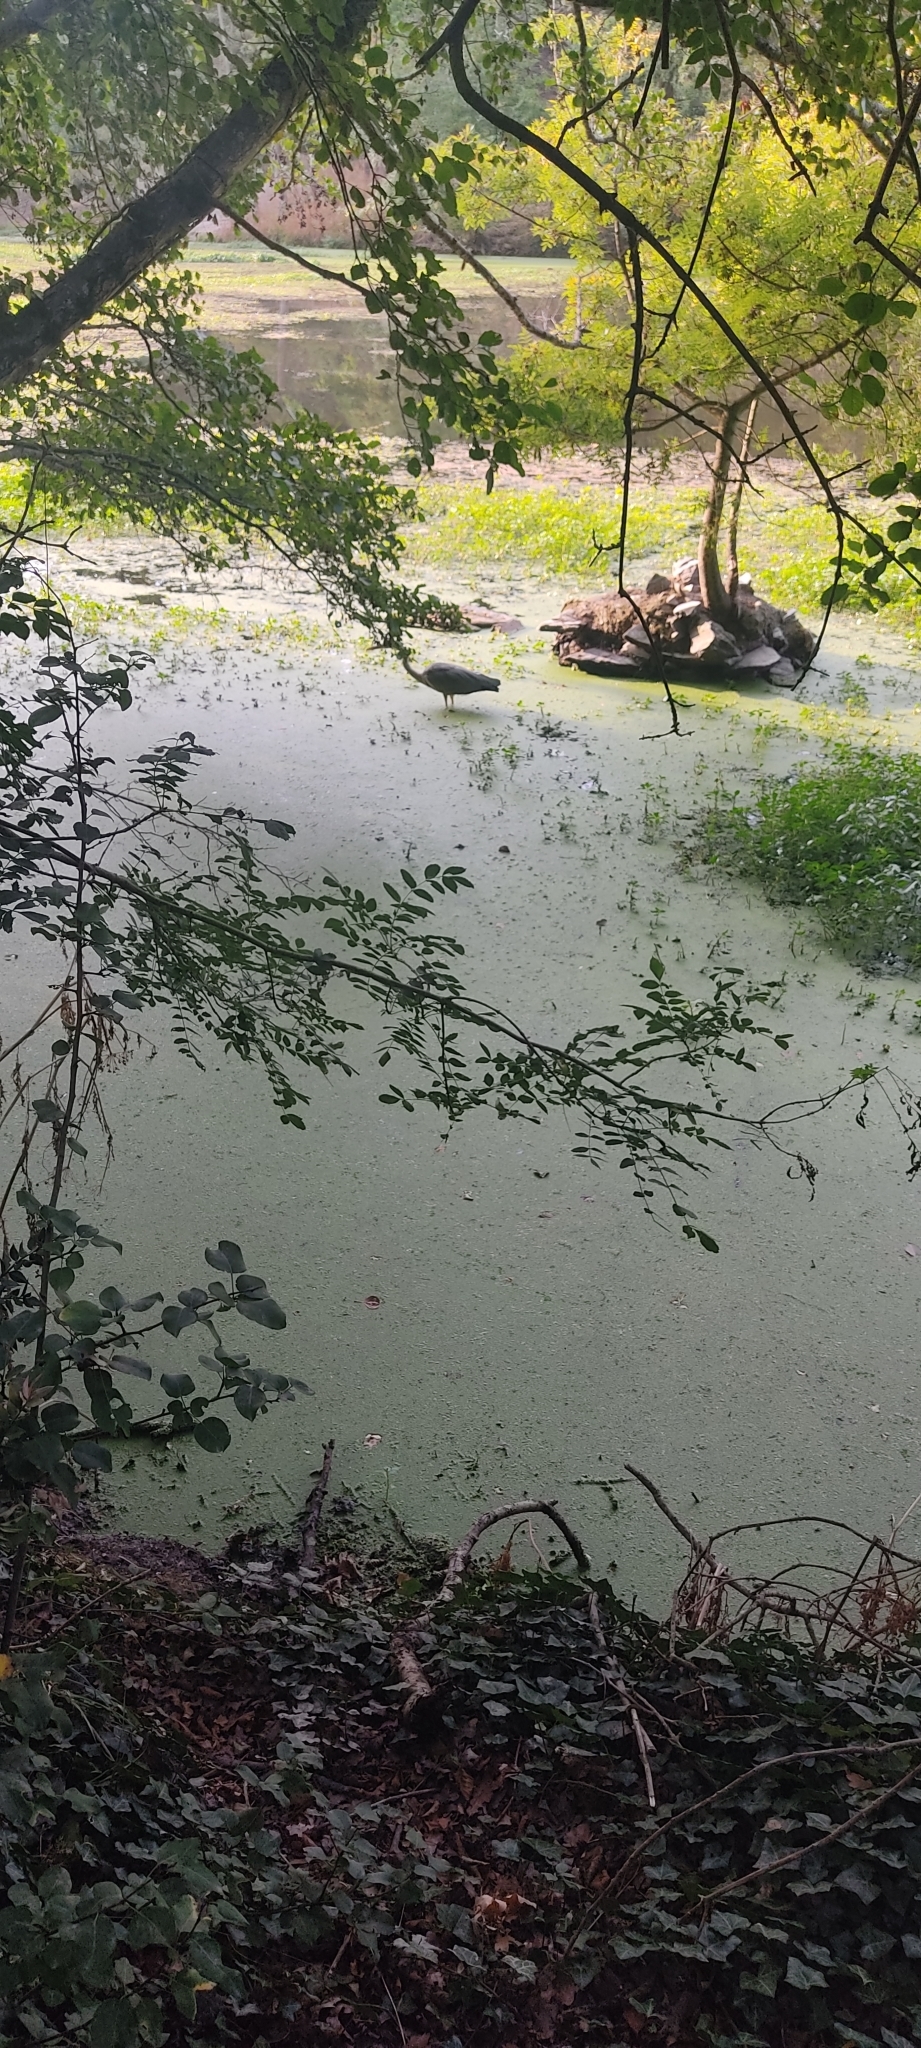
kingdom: Animalia
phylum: Chordata
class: Aves
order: Pelecaniformes
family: Ardeidae
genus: Ardea
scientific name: Ardea cinerea
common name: Grey heron
